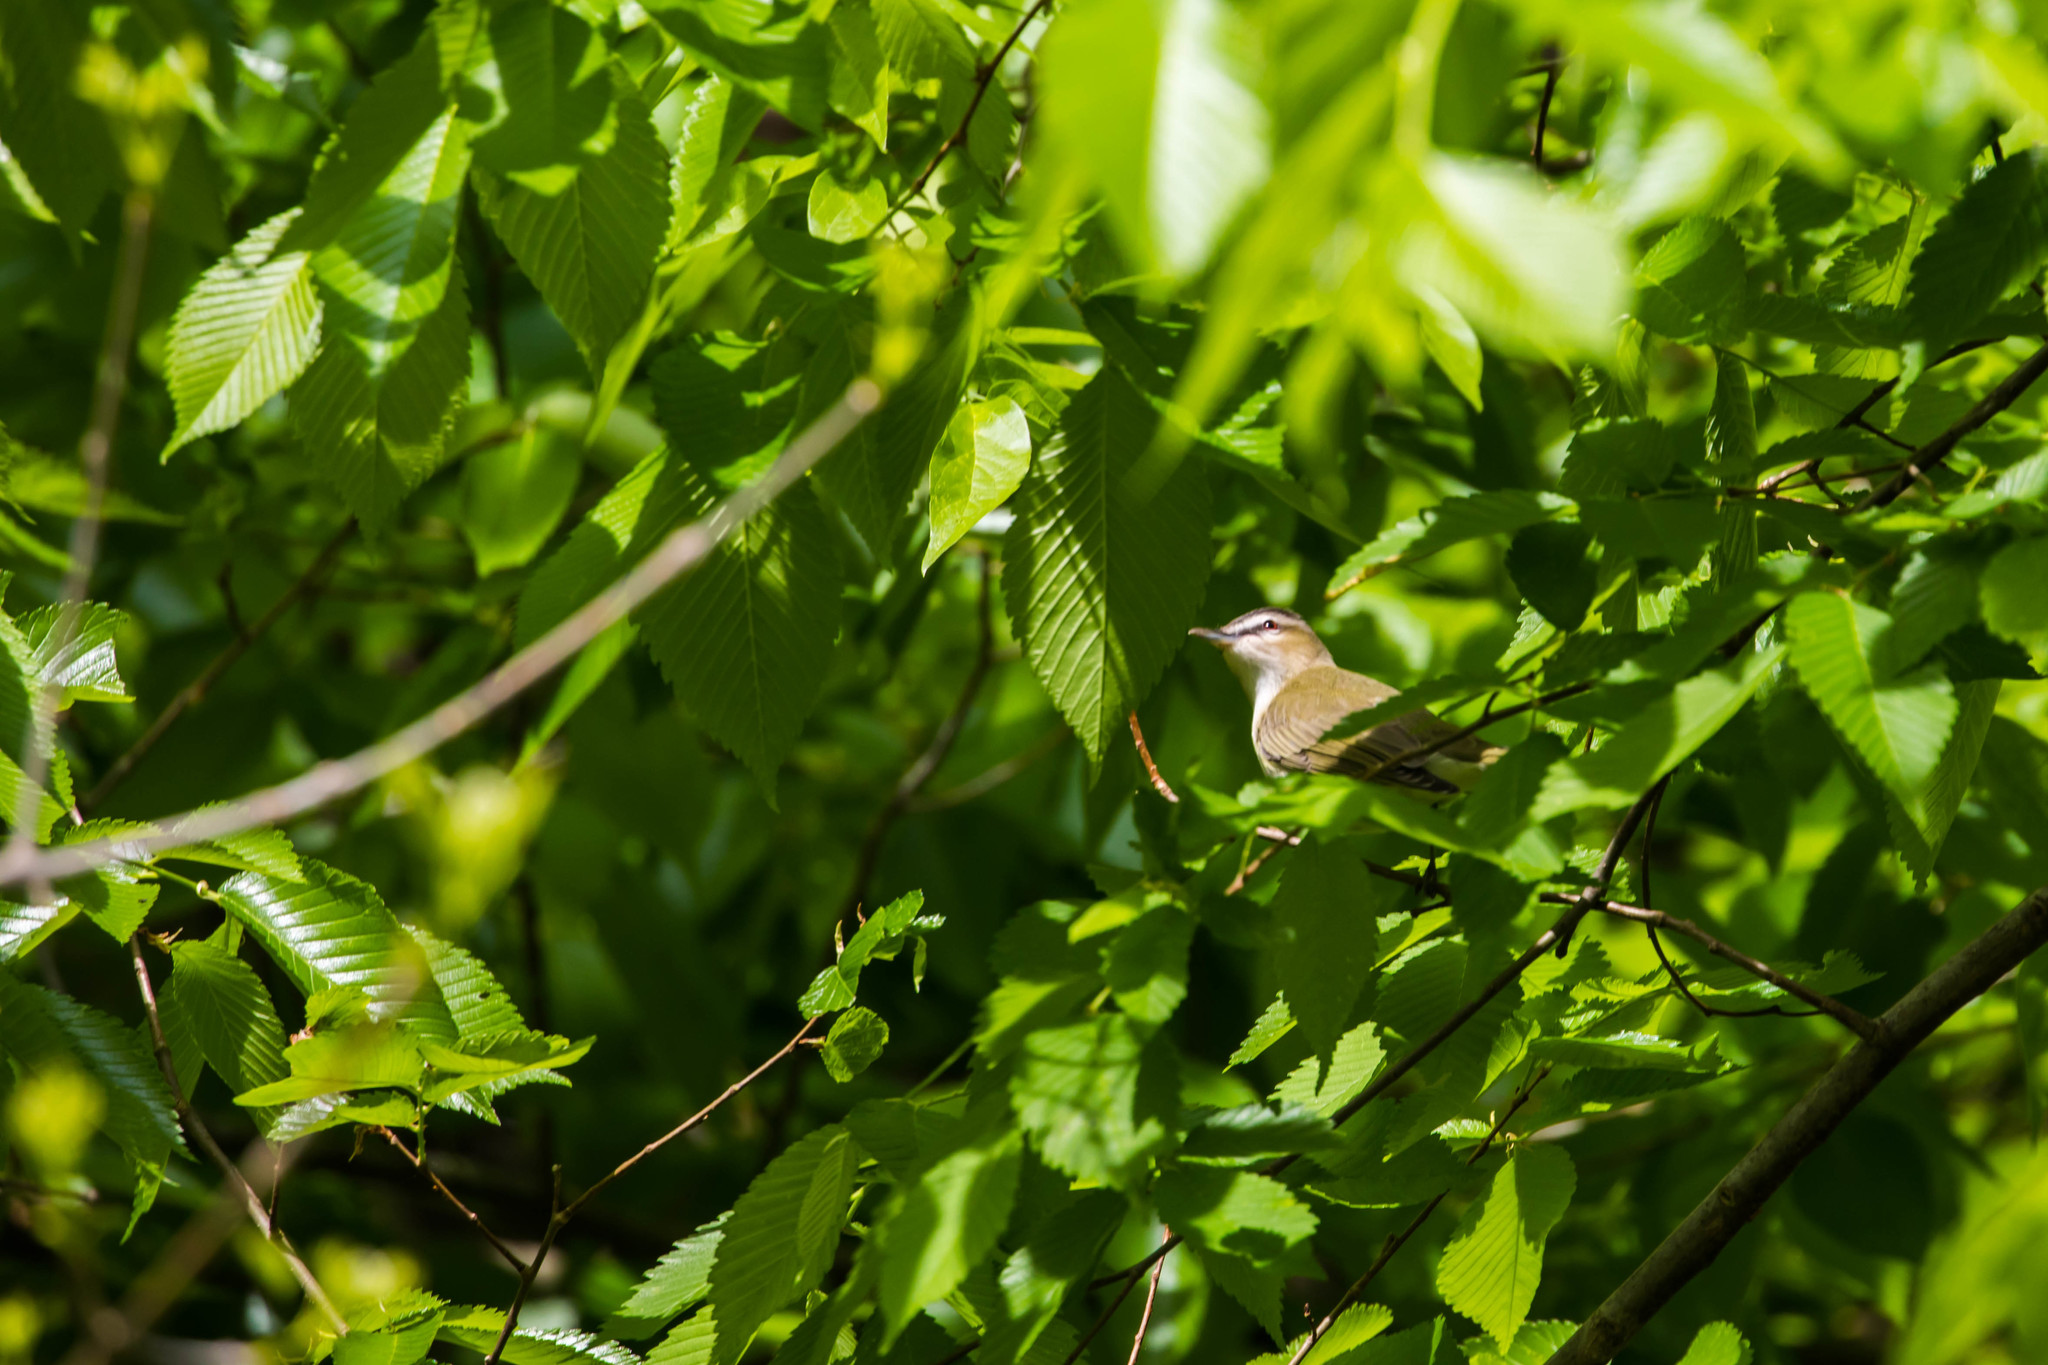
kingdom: Animalia
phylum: Chordata
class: Aves
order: Passeriformes
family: Vireonidae
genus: Vireo
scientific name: Vireo olivaceus
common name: Red-eyed vireo
